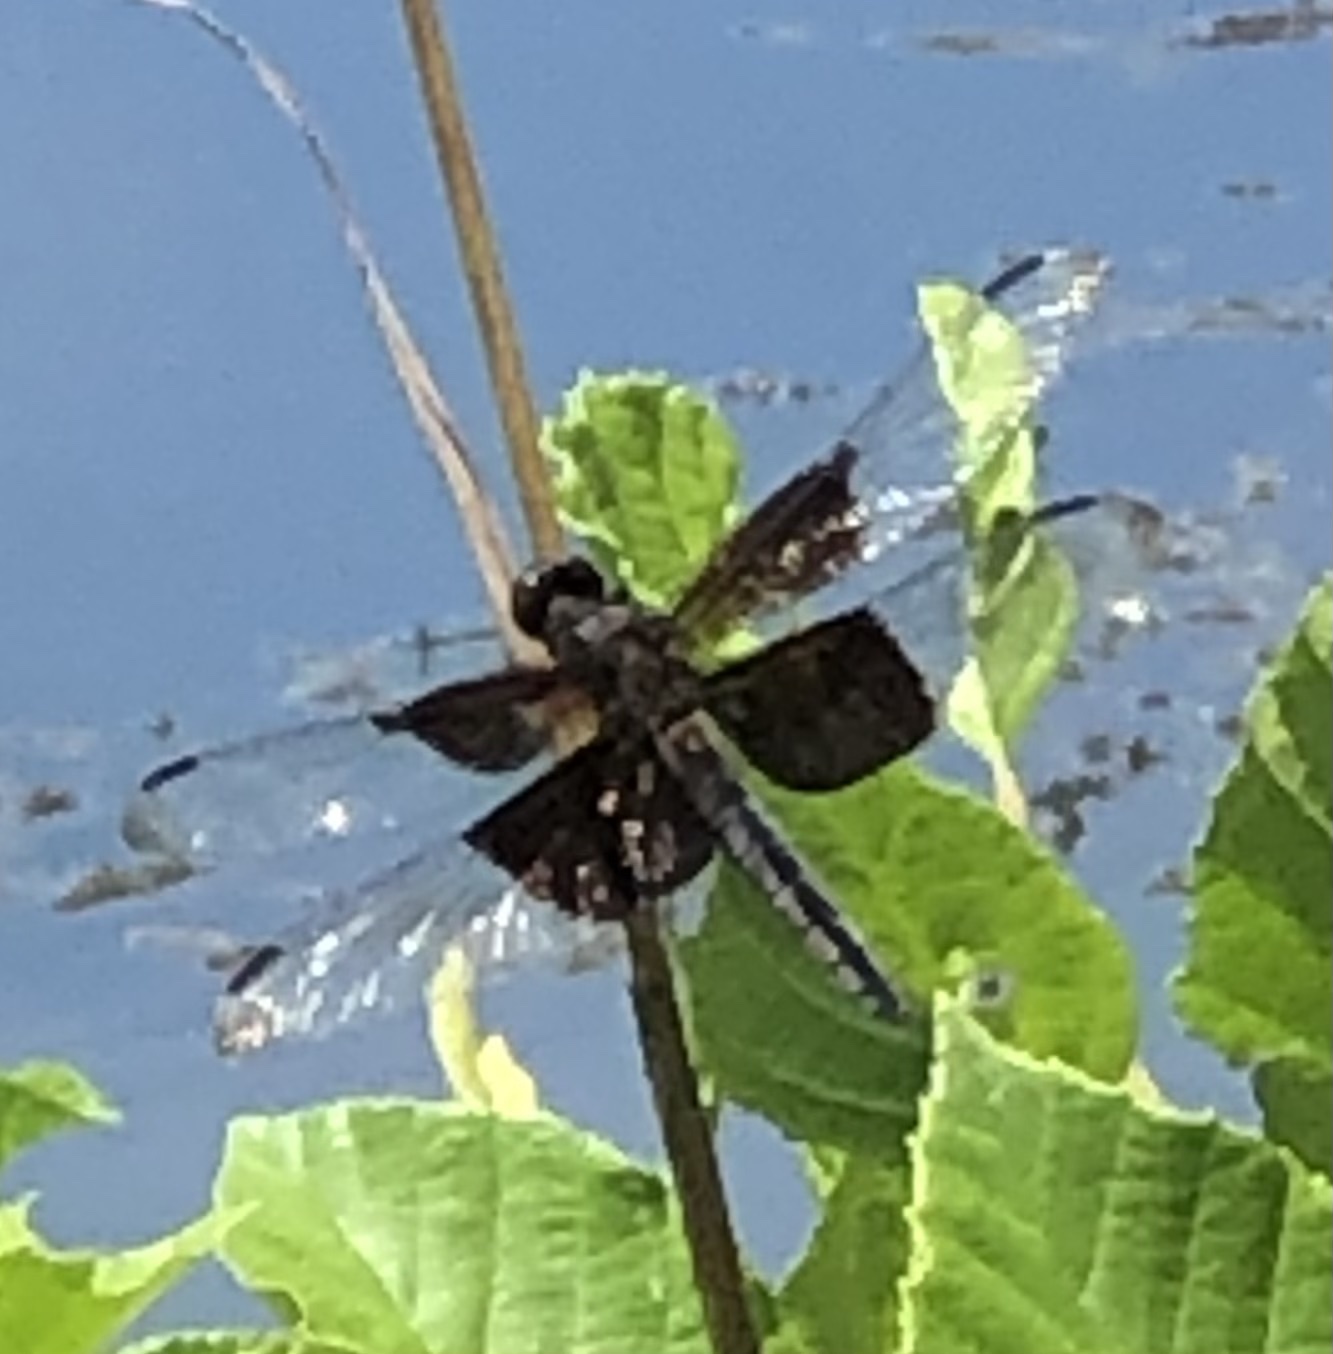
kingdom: Animalia
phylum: Arthropoda
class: Insecta
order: Odonata
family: Libellulidae
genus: Libellula
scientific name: Libellula luctuosa
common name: Widow skimmer
